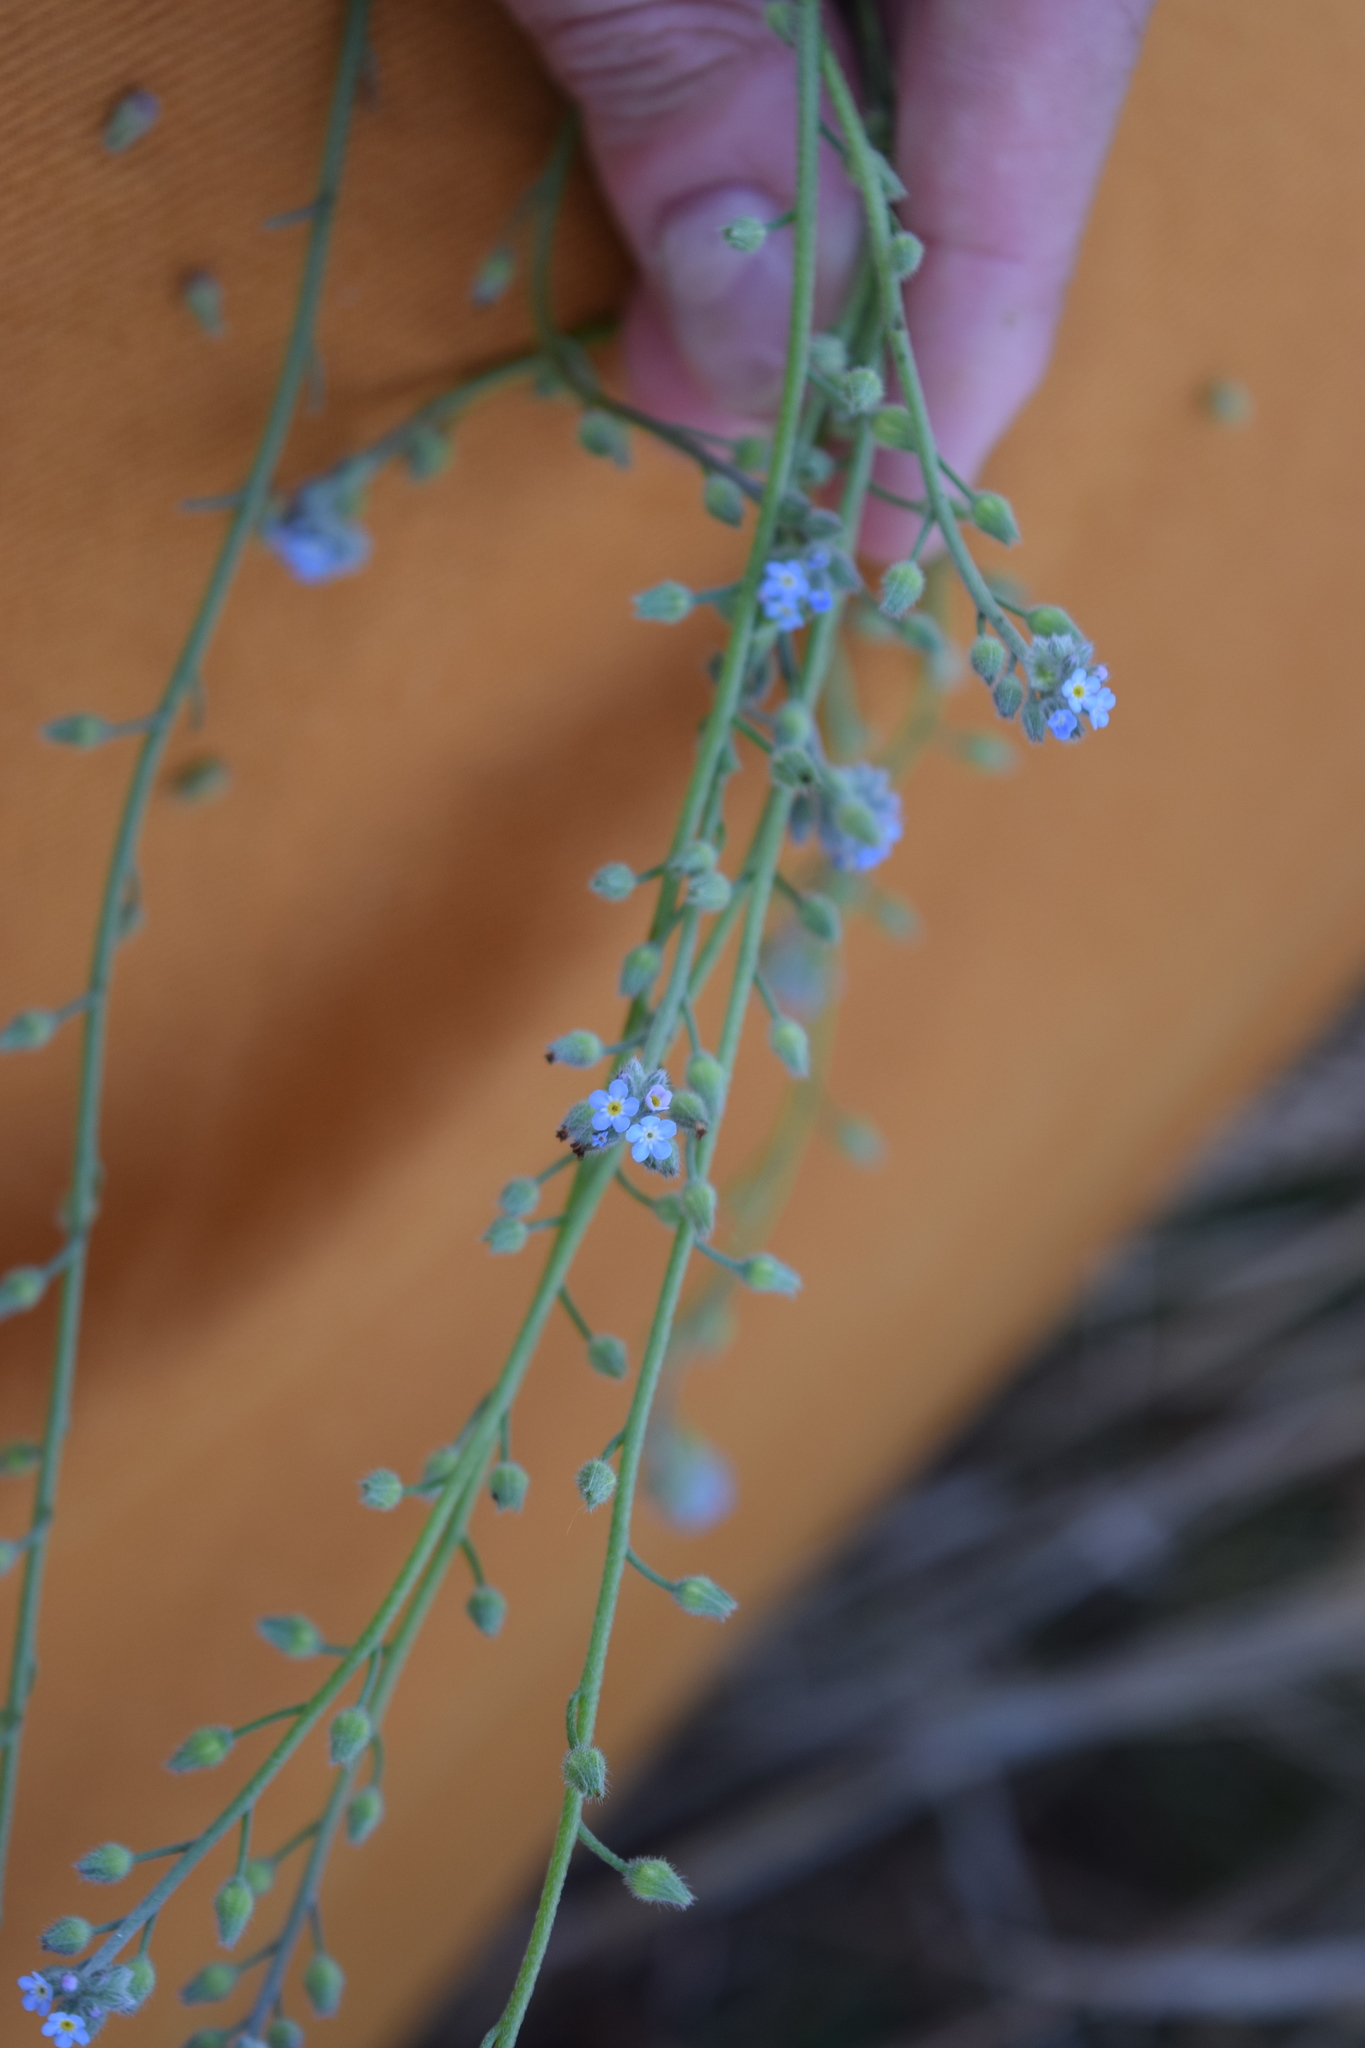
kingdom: Plantae
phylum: Tracheophyta
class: Magnoliopsida
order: Boraginales
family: Boraginaceae
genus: Myosotis
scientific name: Myosotis arvensis
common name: Field forget-me-not
